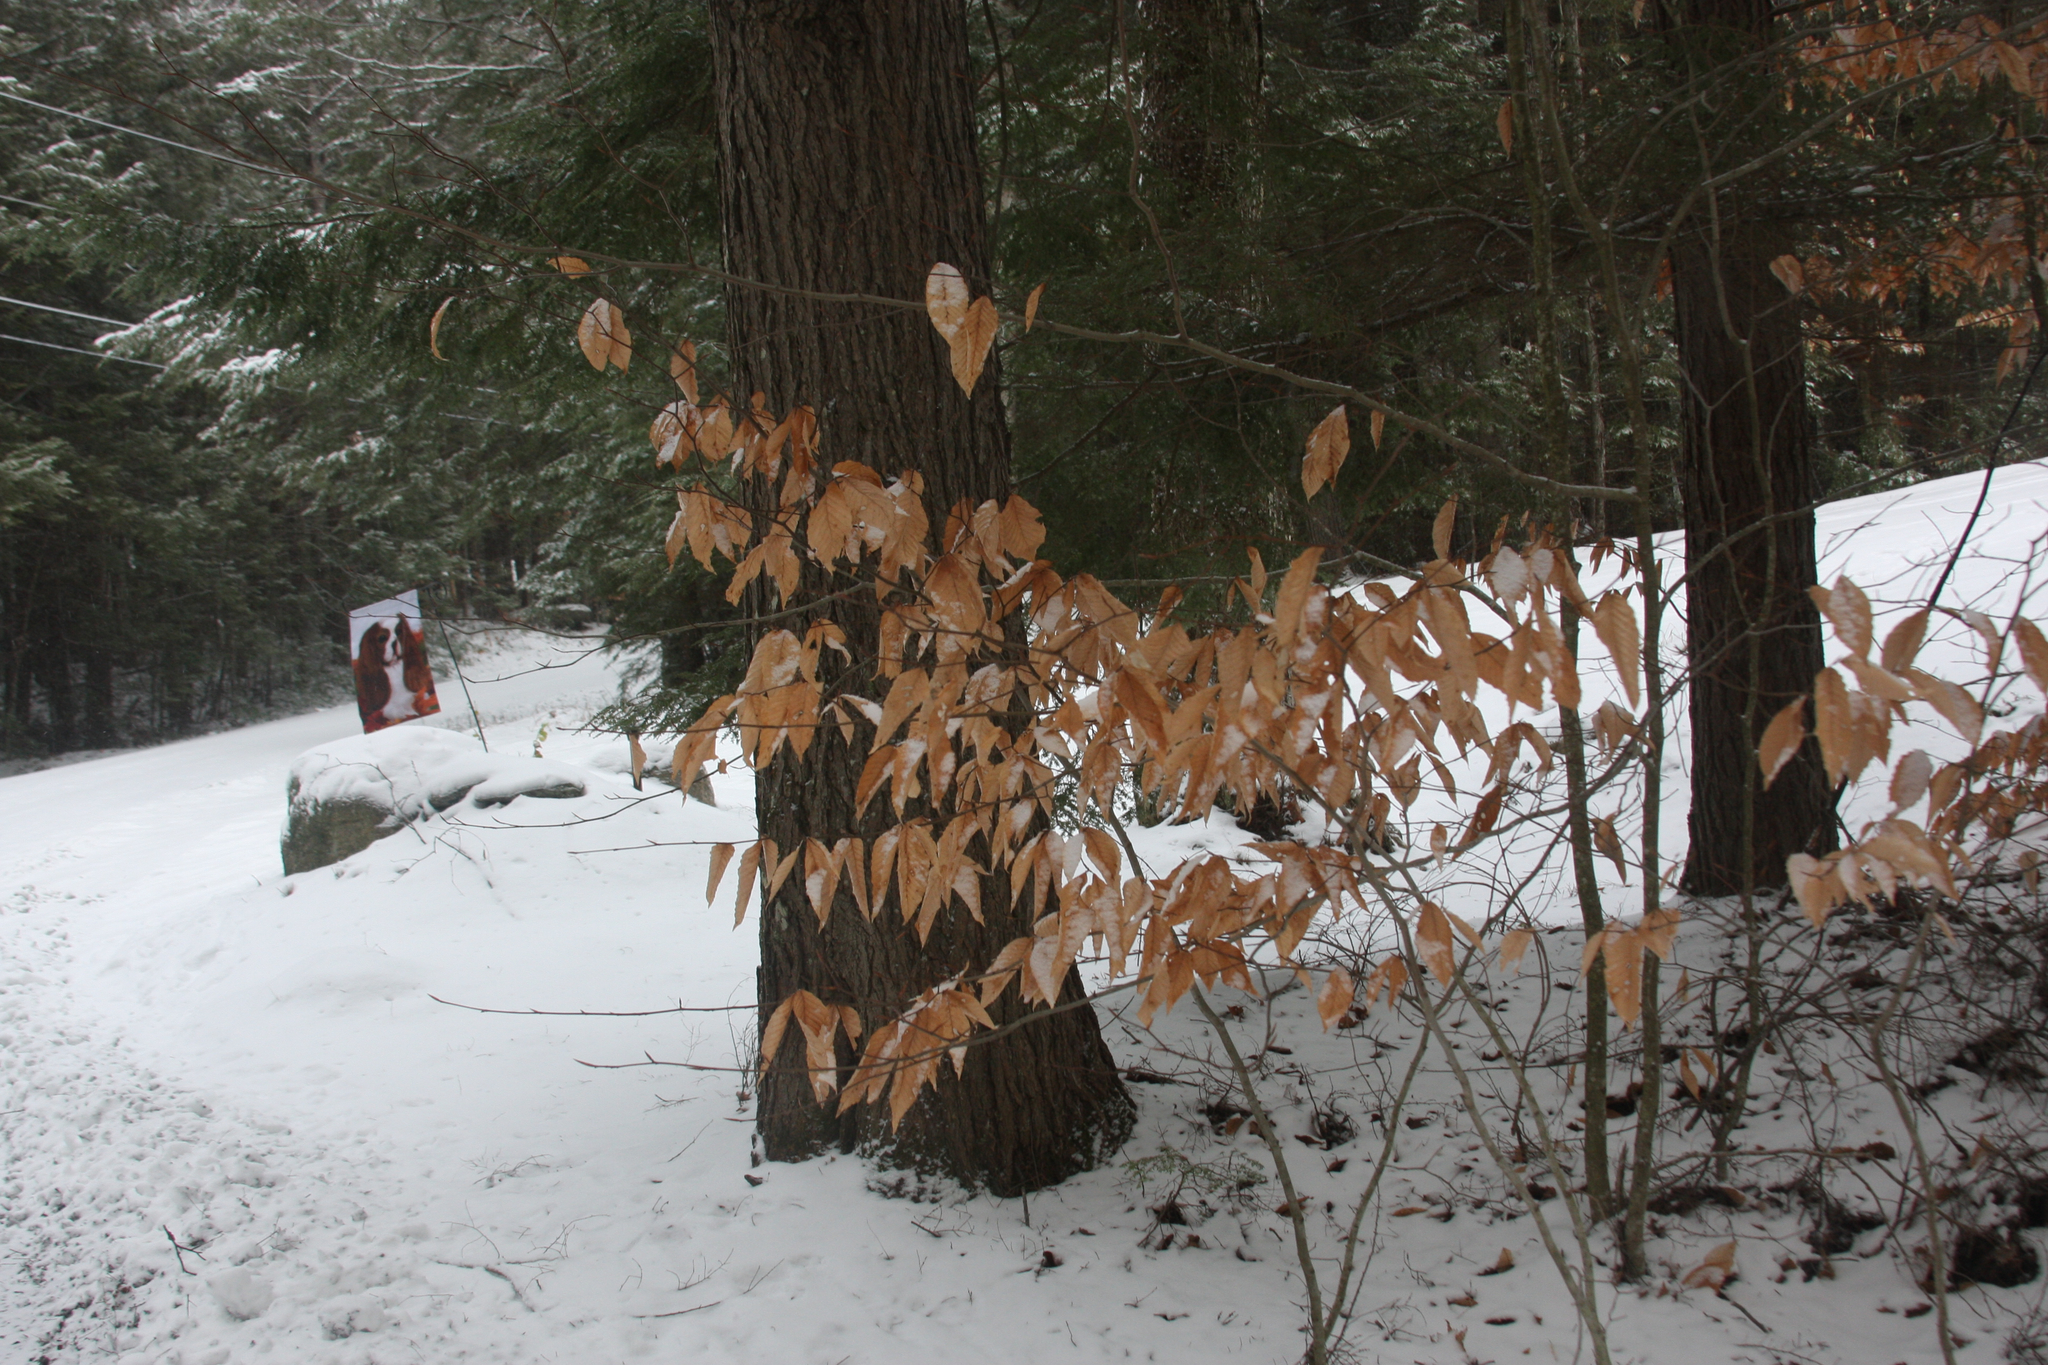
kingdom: Plantae
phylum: Tracheophyta
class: Magnoliopsida
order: Fagales
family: Fagaceae
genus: Fagus
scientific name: Fagus grandifolia
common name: American beech
